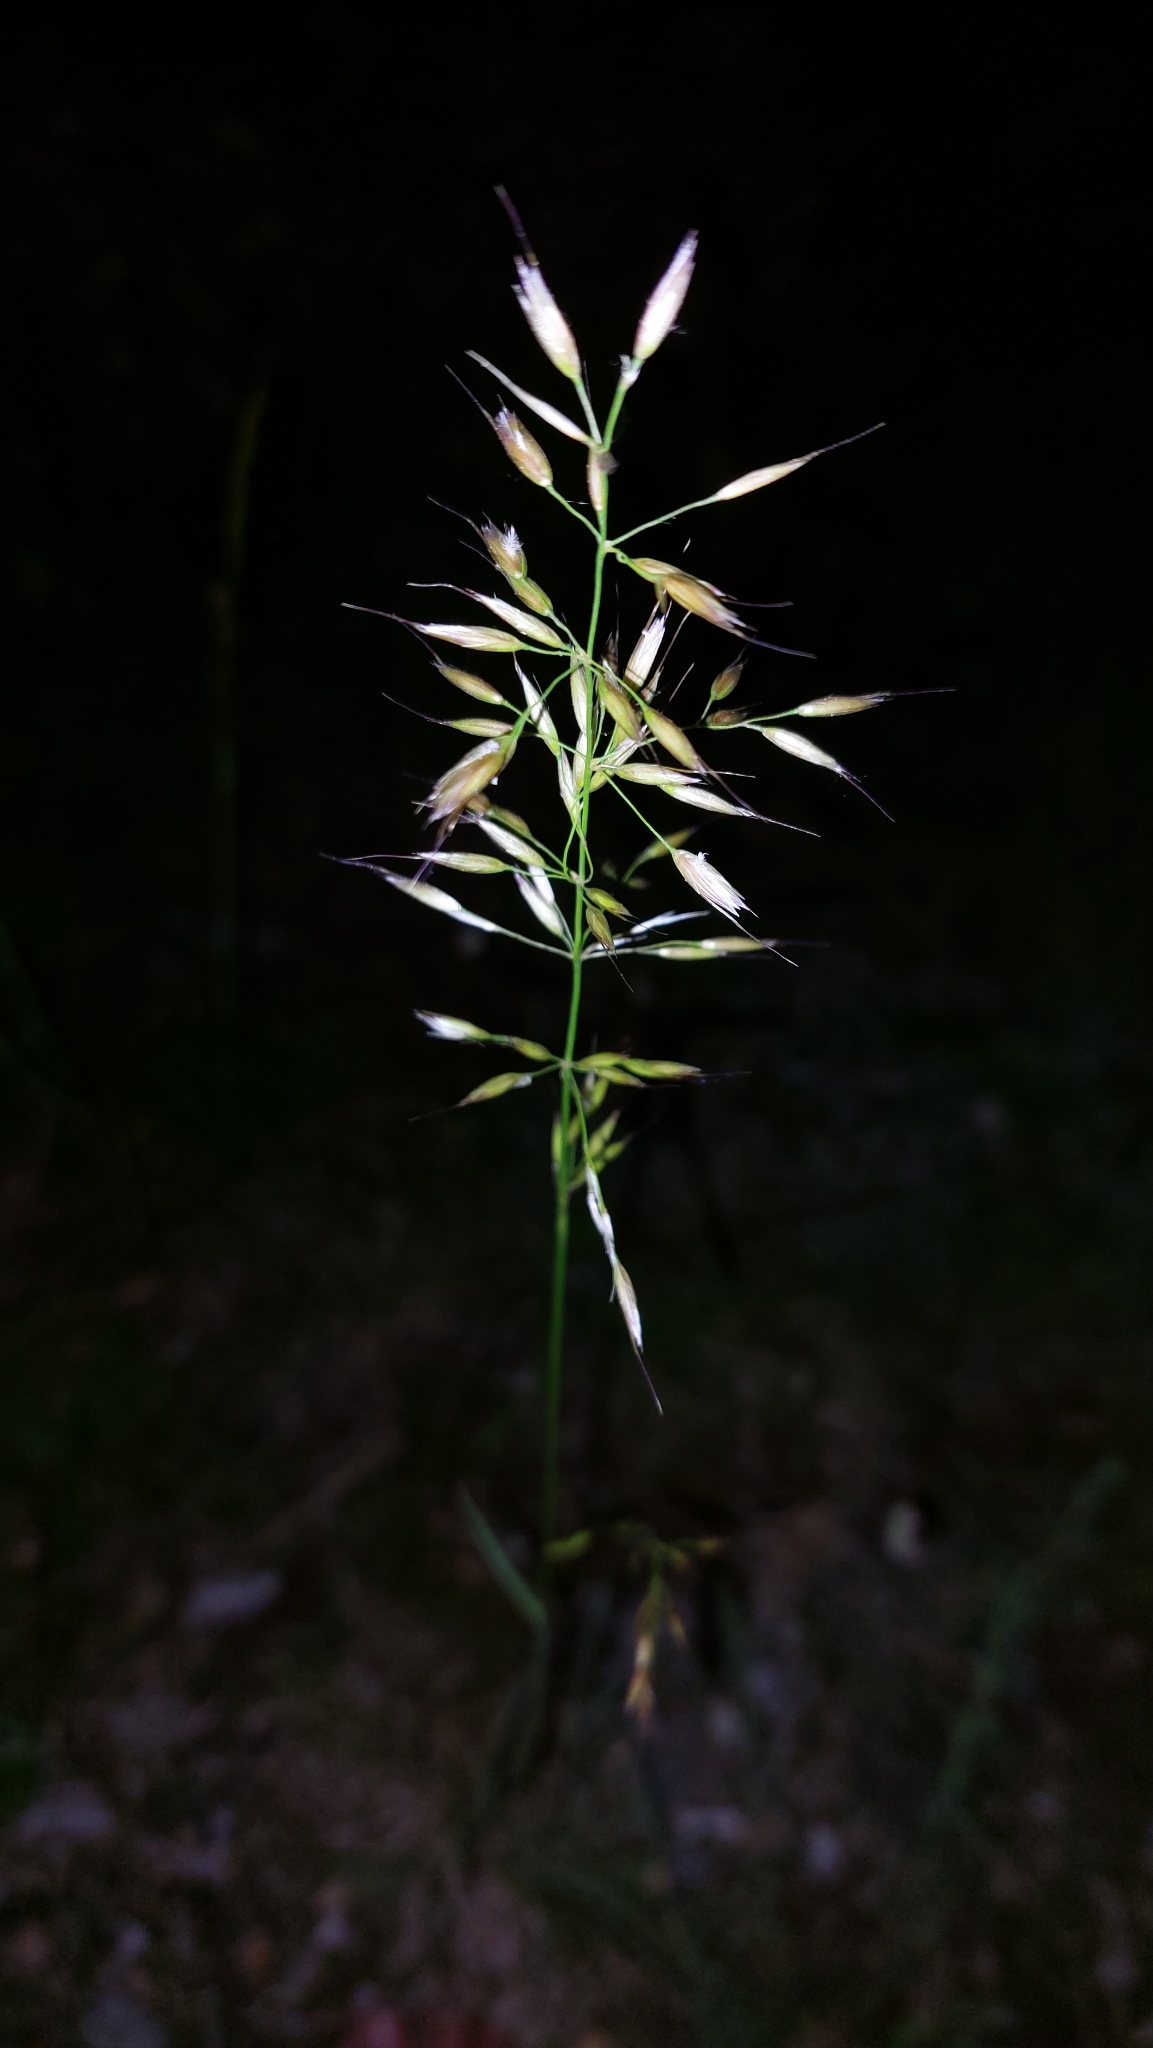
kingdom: Plantae
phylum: Tracheophyta
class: Liliopsida
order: Poales
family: Poaceae
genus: Arrhenatherum
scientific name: Arrhenatherum elatius
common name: Tall oatgrass
